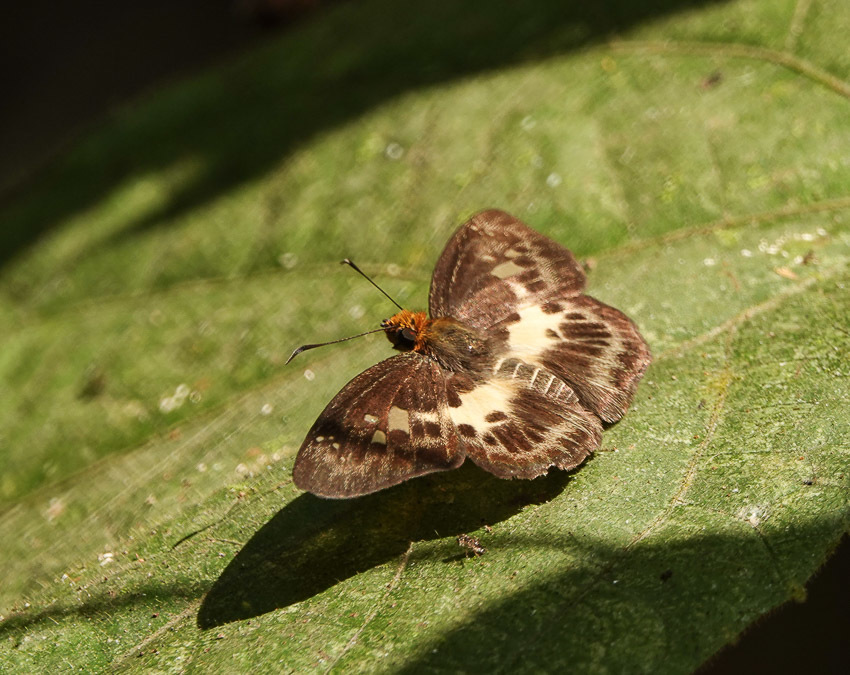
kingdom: Animalia
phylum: Arthropoda
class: Insecta
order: Lepidoptera
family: Hesperiidae
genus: Daimio
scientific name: Daimio
